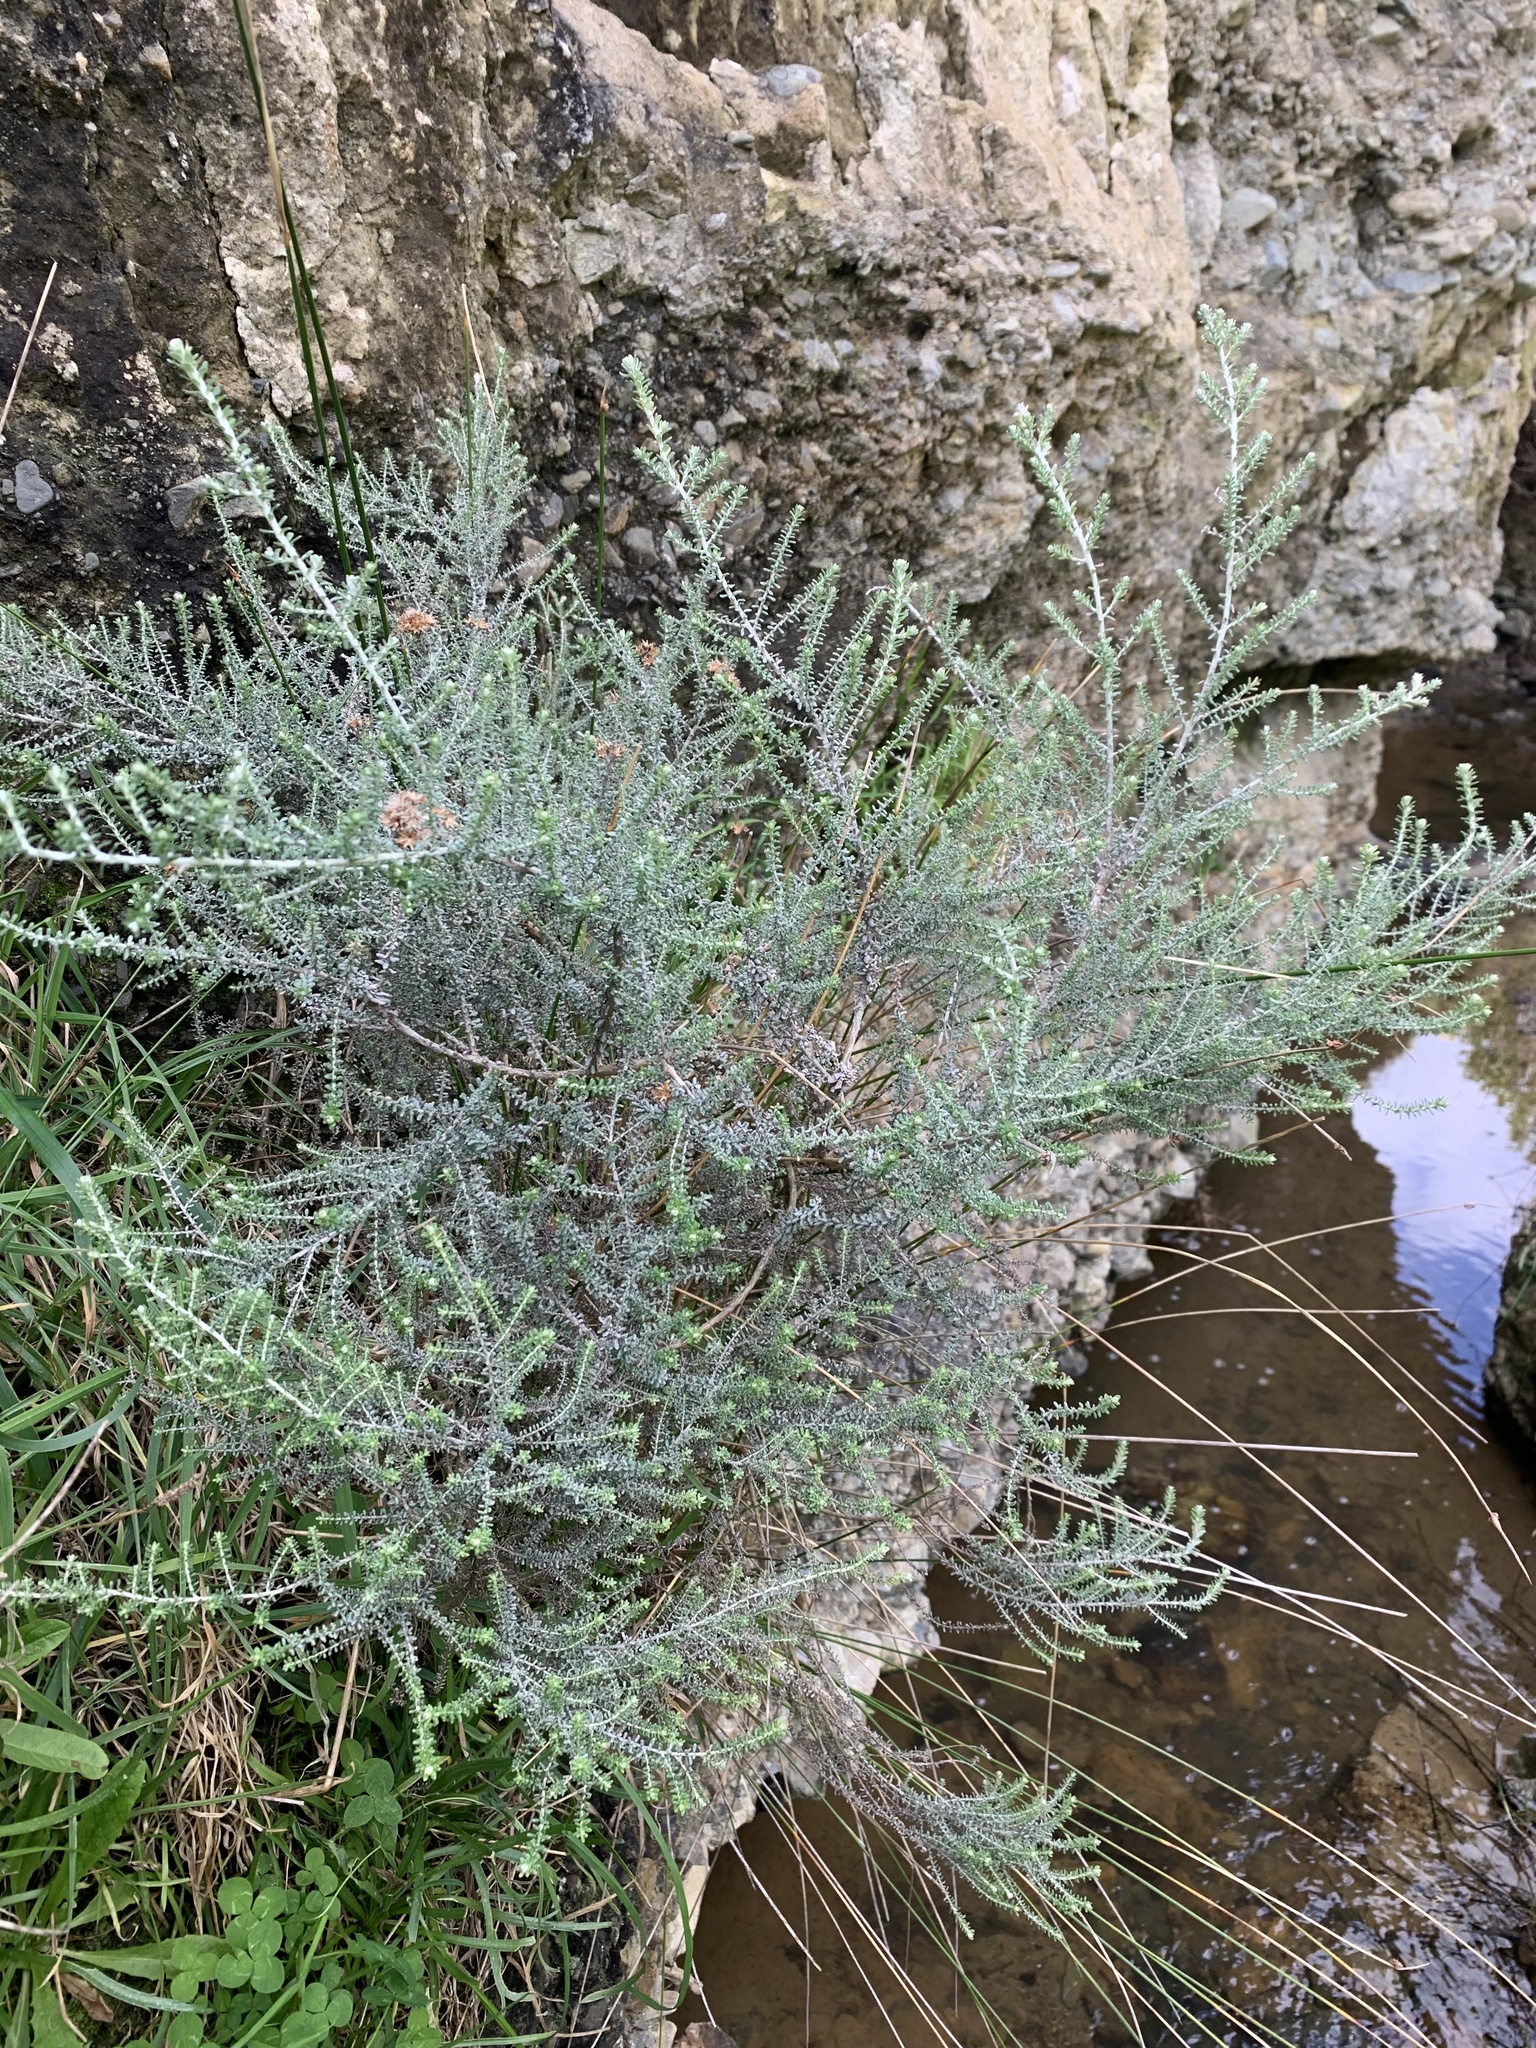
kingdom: Plantae
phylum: Tracheophyta
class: Magnoliopsida
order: Asterales
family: Asteraceae
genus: Ozothamnus
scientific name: Ozothamnus leptophyllus
